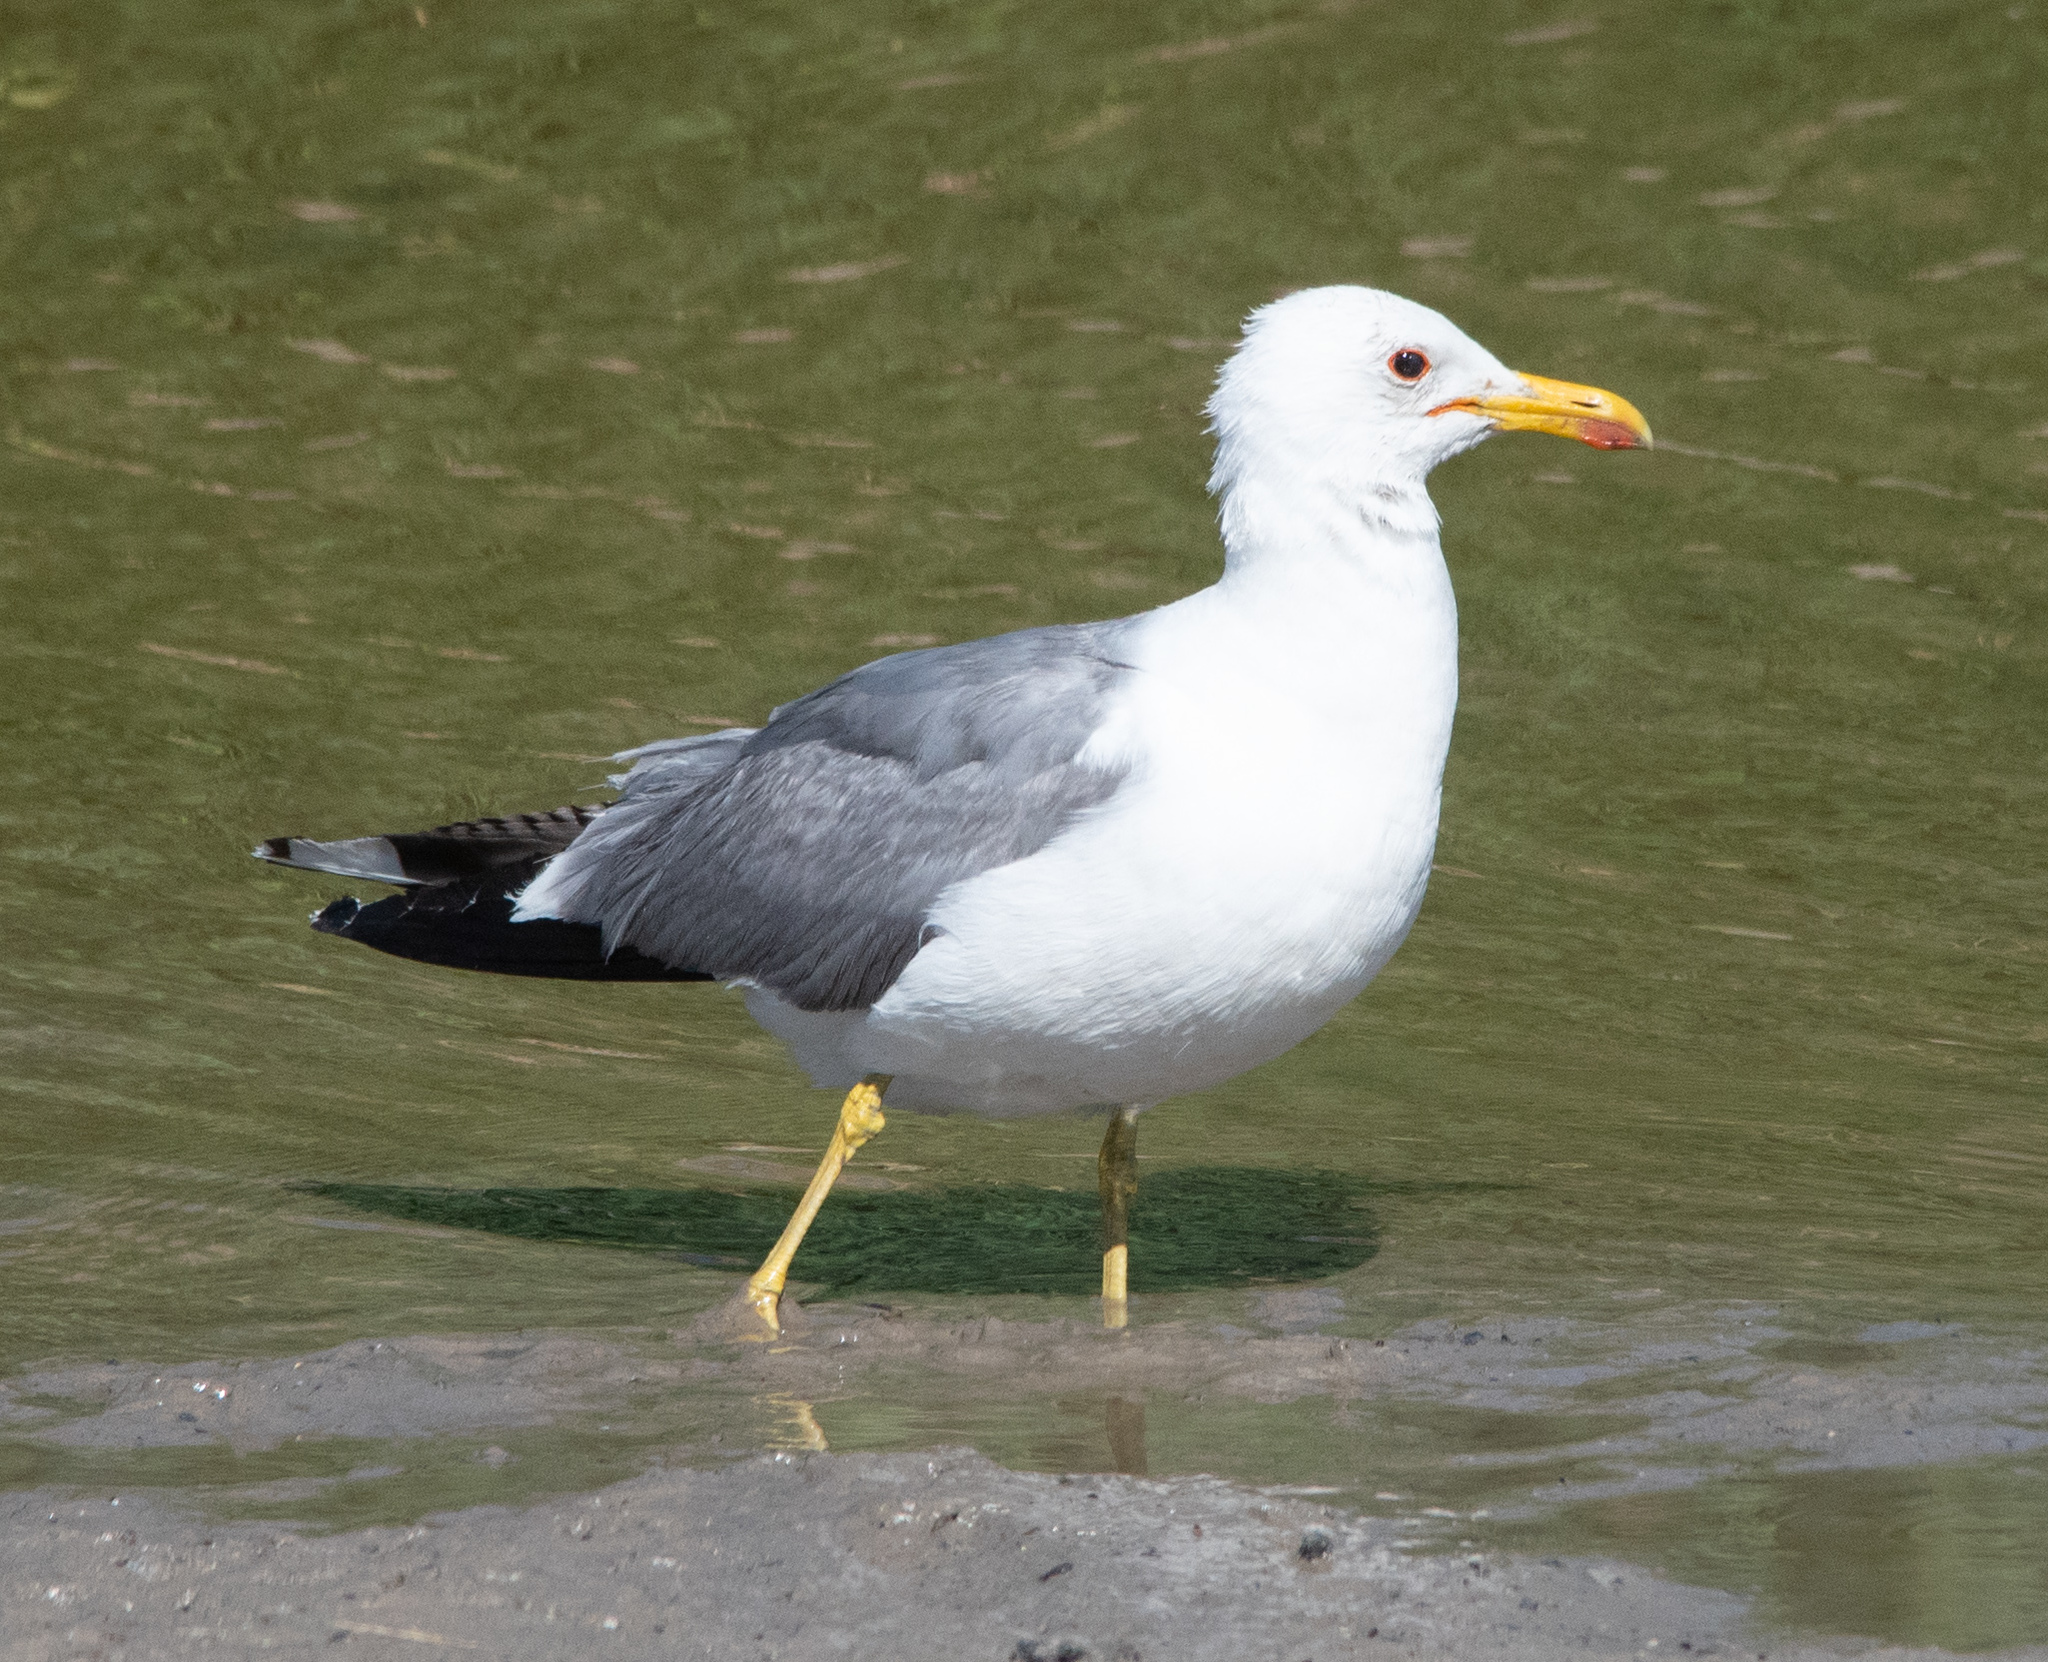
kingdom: Animalia
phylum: Chordata
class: Aves
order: Charadriiformes
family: Laridae
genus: Larus
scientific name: Larus californicus
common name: California gull
